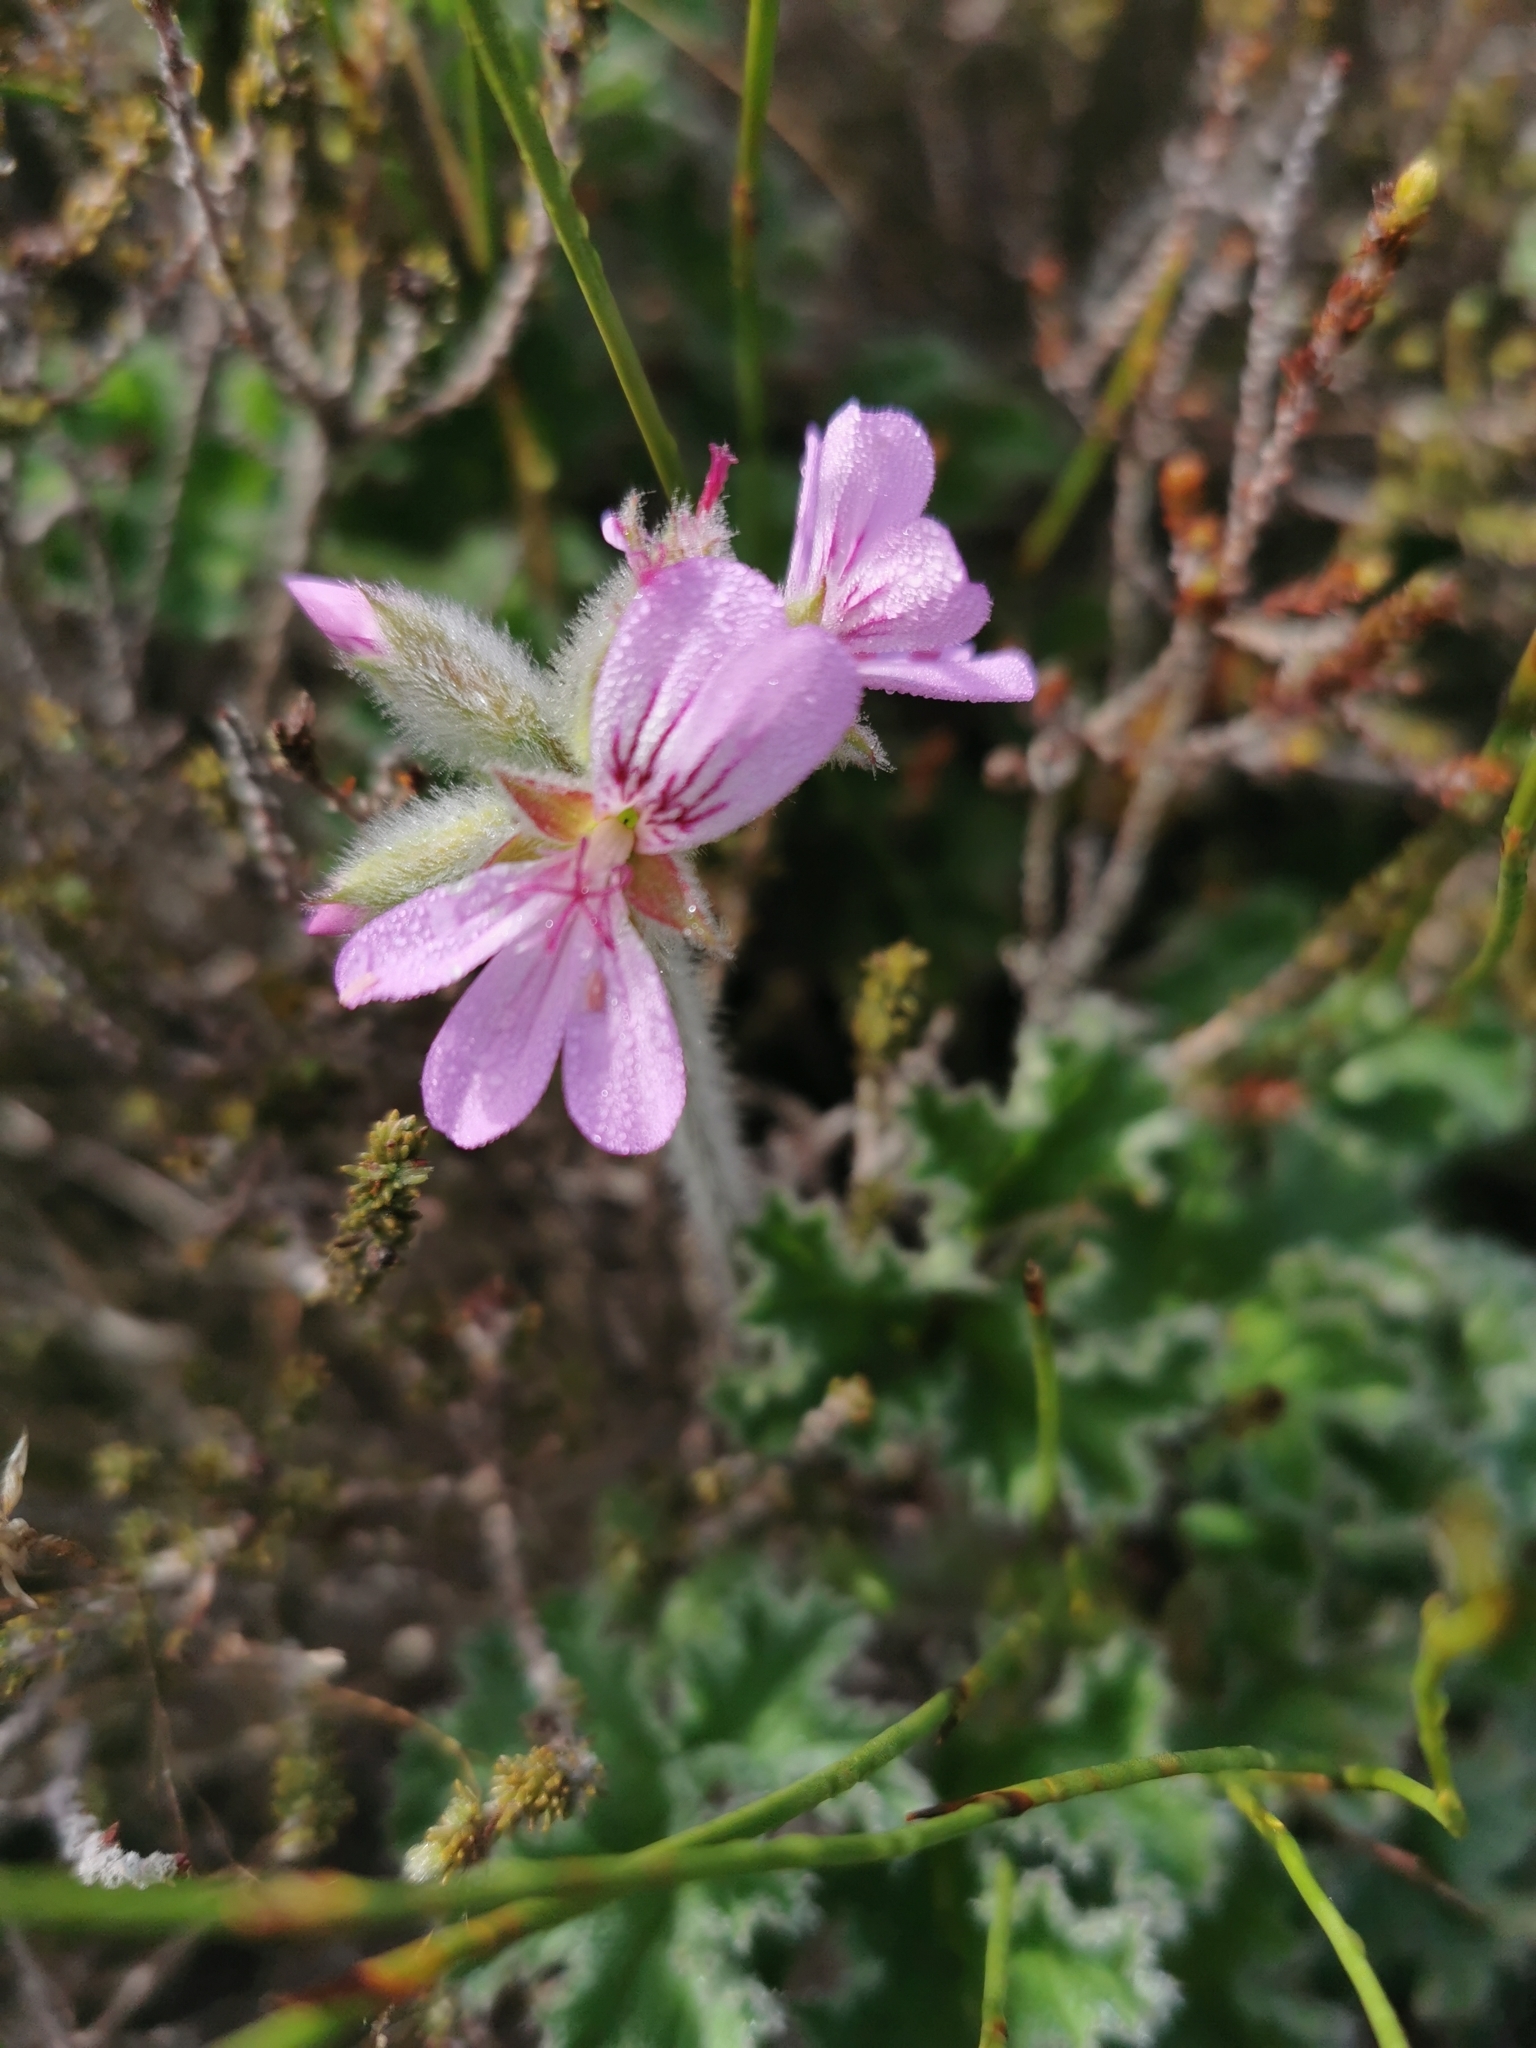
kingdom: Plantae
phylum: Tracheophyta
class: Magnoliopsida
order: Geraniales
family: Geraniaceae
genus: Pelargonium
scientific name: Pelargonium capitatum
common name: Rose scented geranium
